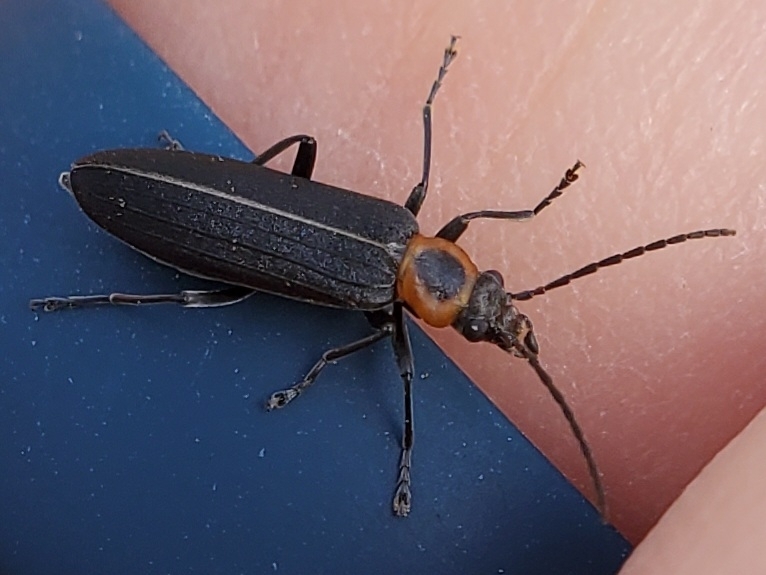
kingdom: Animalia
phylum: Arthropoda
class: Insecta
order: Coleoptera
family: Oedemeridae
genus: Ischnomera
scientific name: Ischnomera
